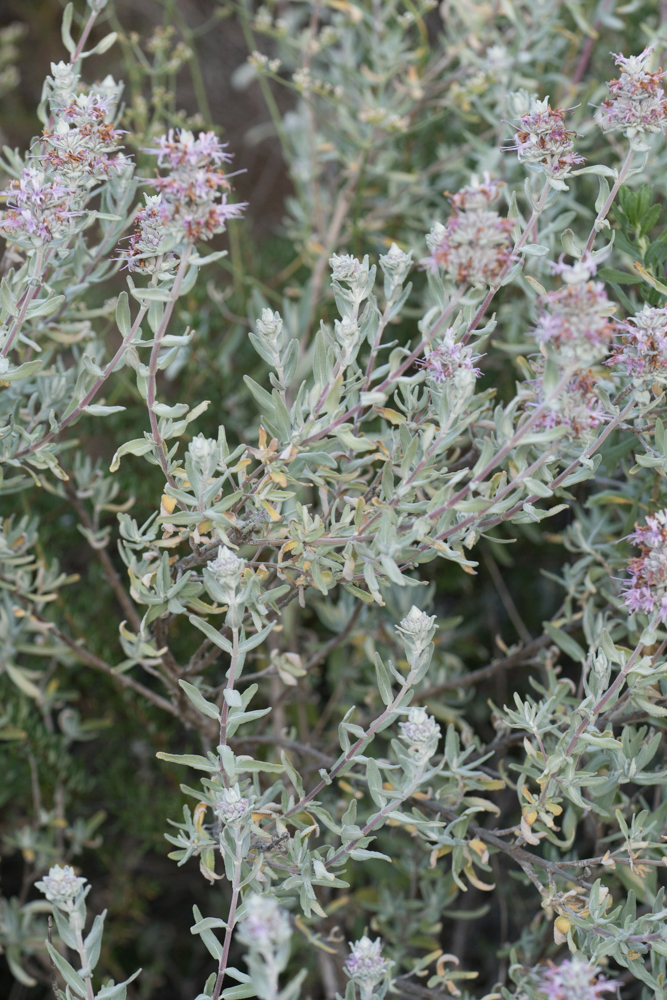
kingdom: Plantae
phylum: Tracheophyta
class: Magnoliopsida
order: Lamiales
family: Lamiaceae
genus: Salvia
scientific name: Salvia leucophylla
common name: Purple sage
